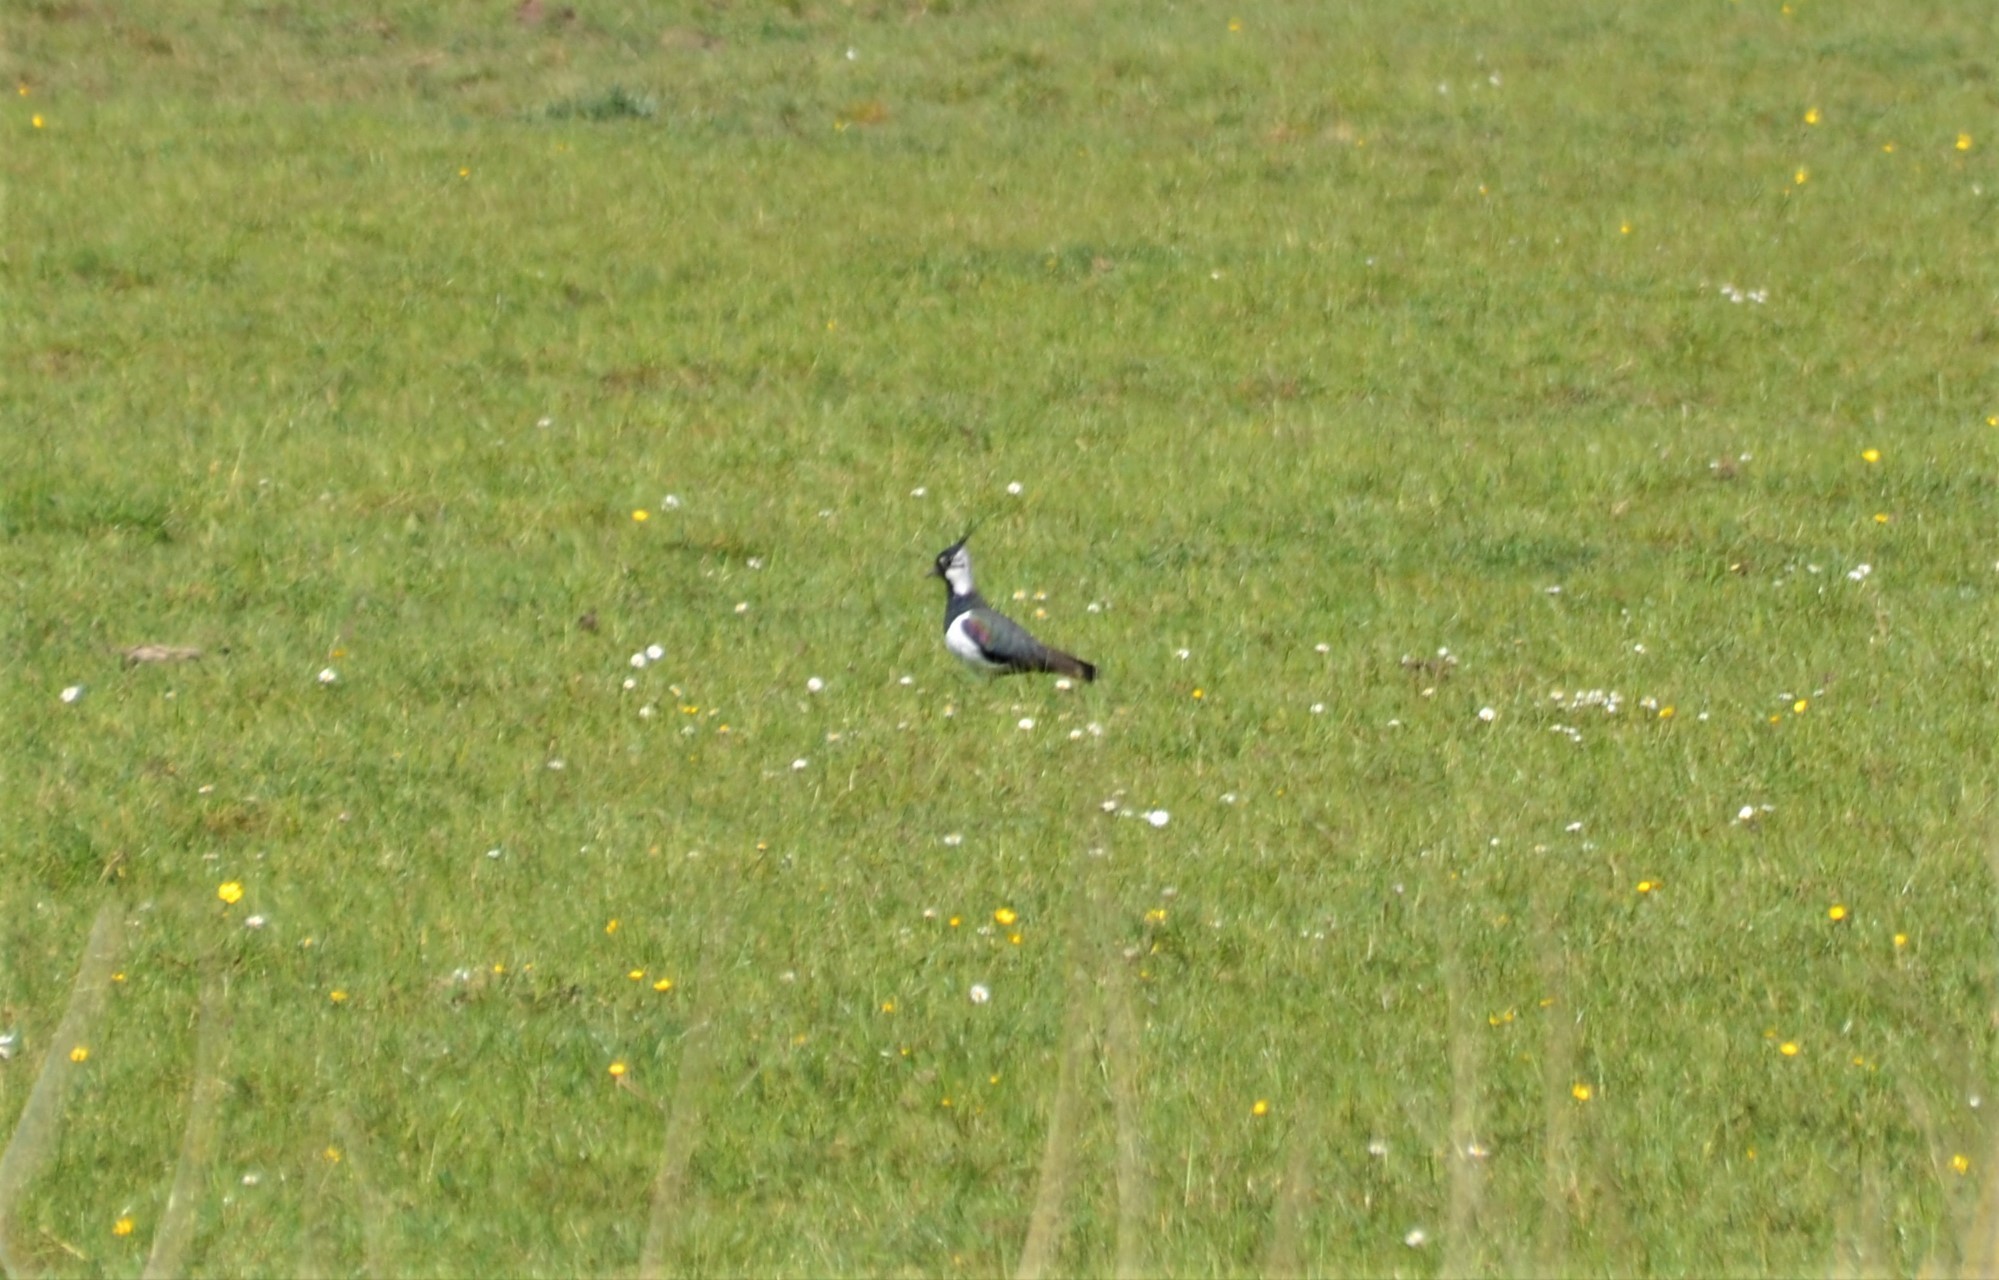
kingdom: Animalia
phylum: Chordata
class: Aves
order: Charadriiformes
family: Charadriidae
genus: Vanellus
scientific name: Vanellus vanellus
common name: Northern lapwing
